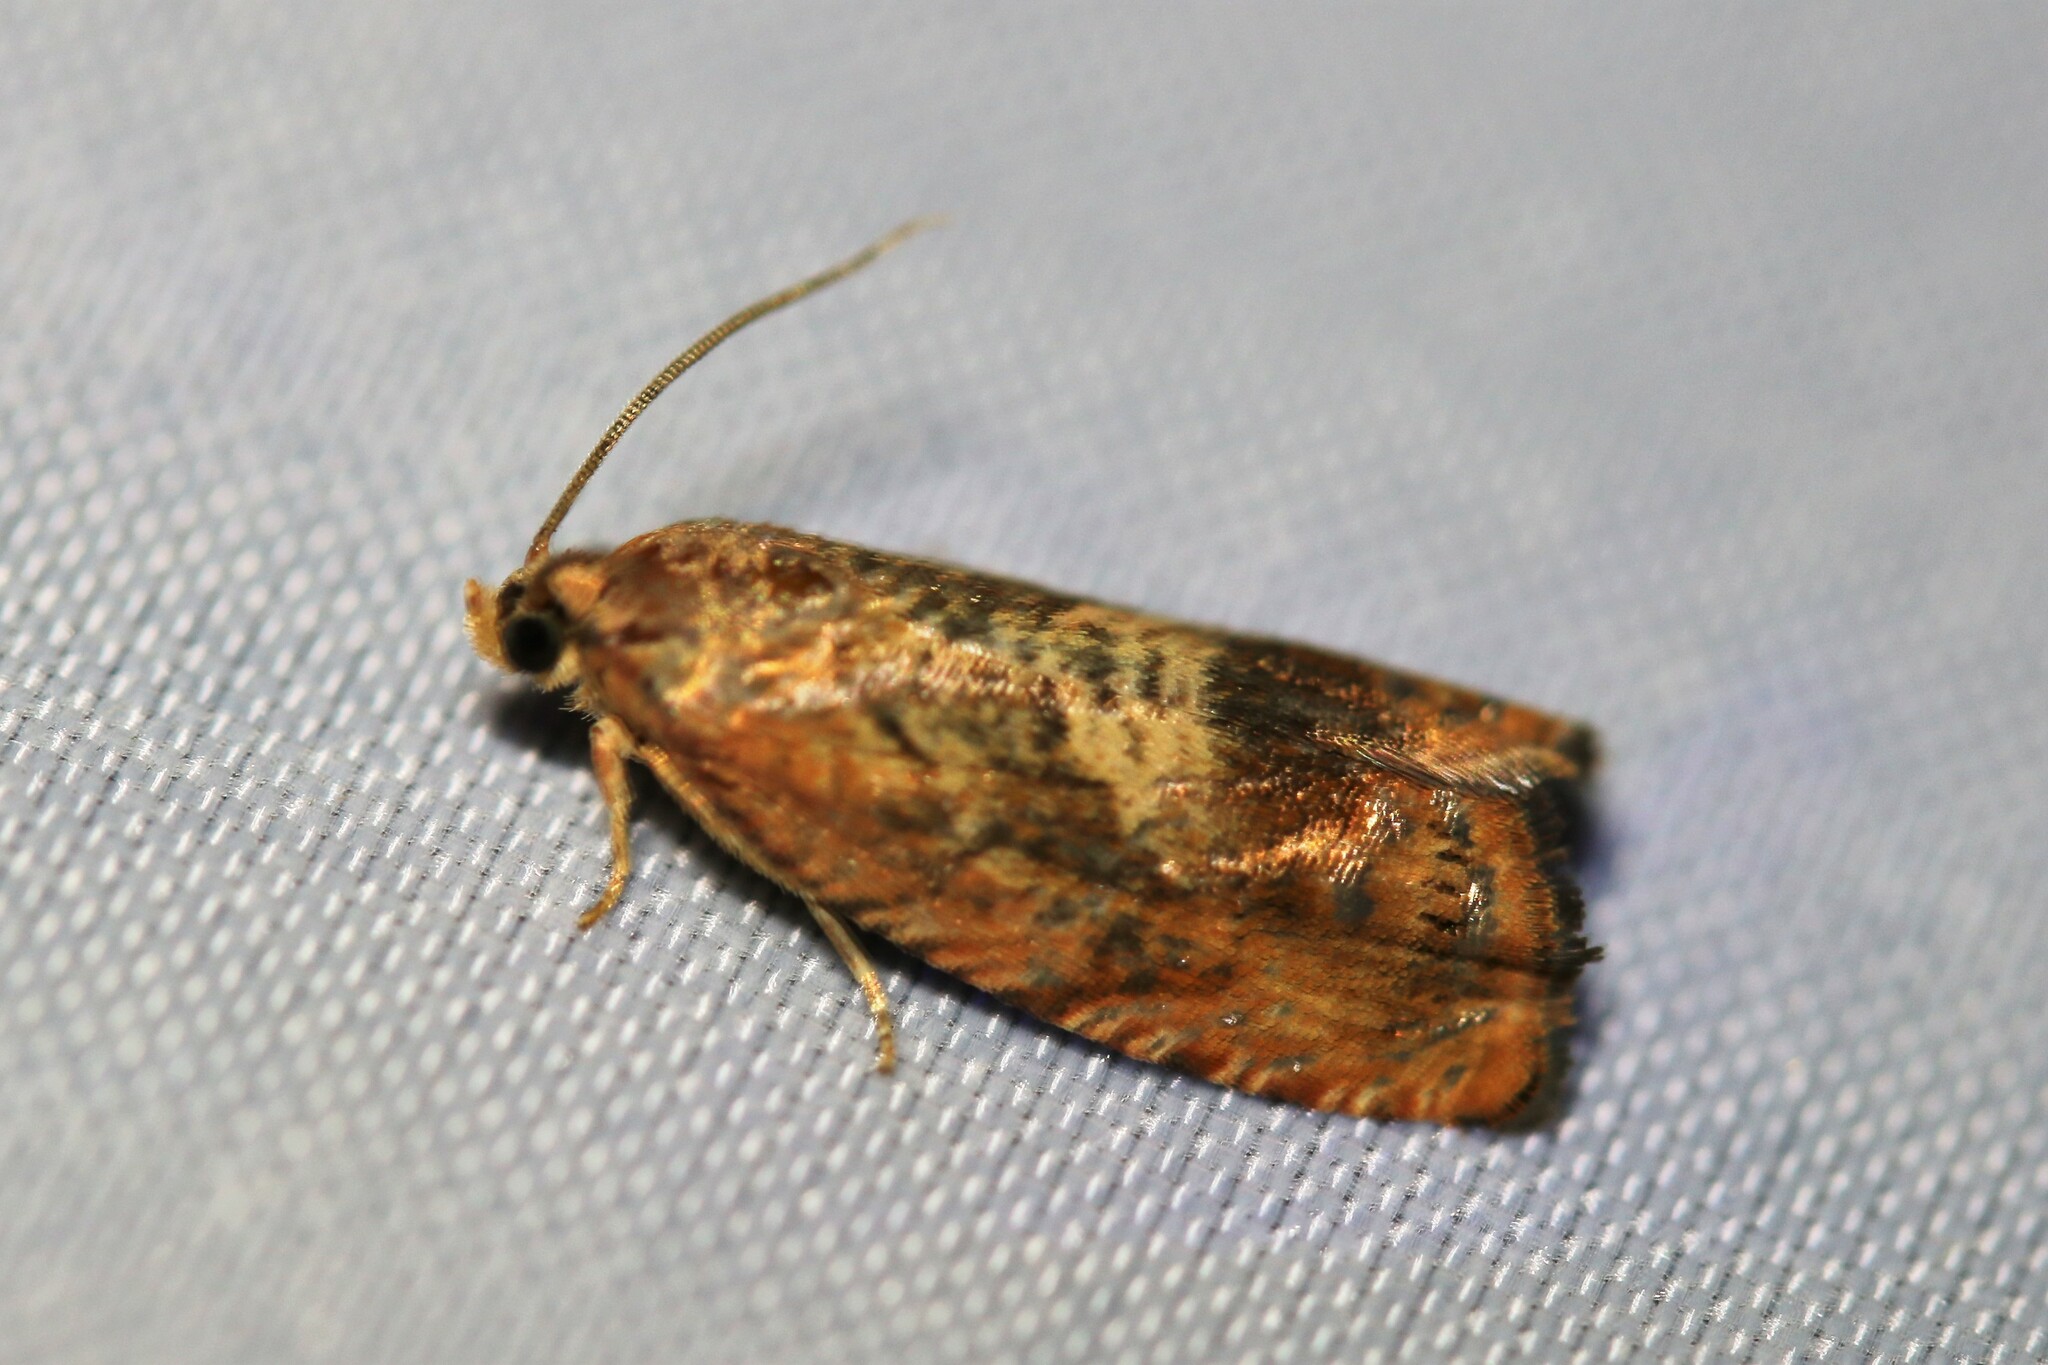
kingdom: Animalia
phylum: Arthropoda
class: Insecta
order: Lepidoptera
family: Tortricidae
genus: Cydia
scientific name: Cydia amplana
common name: Vagrant piercer
